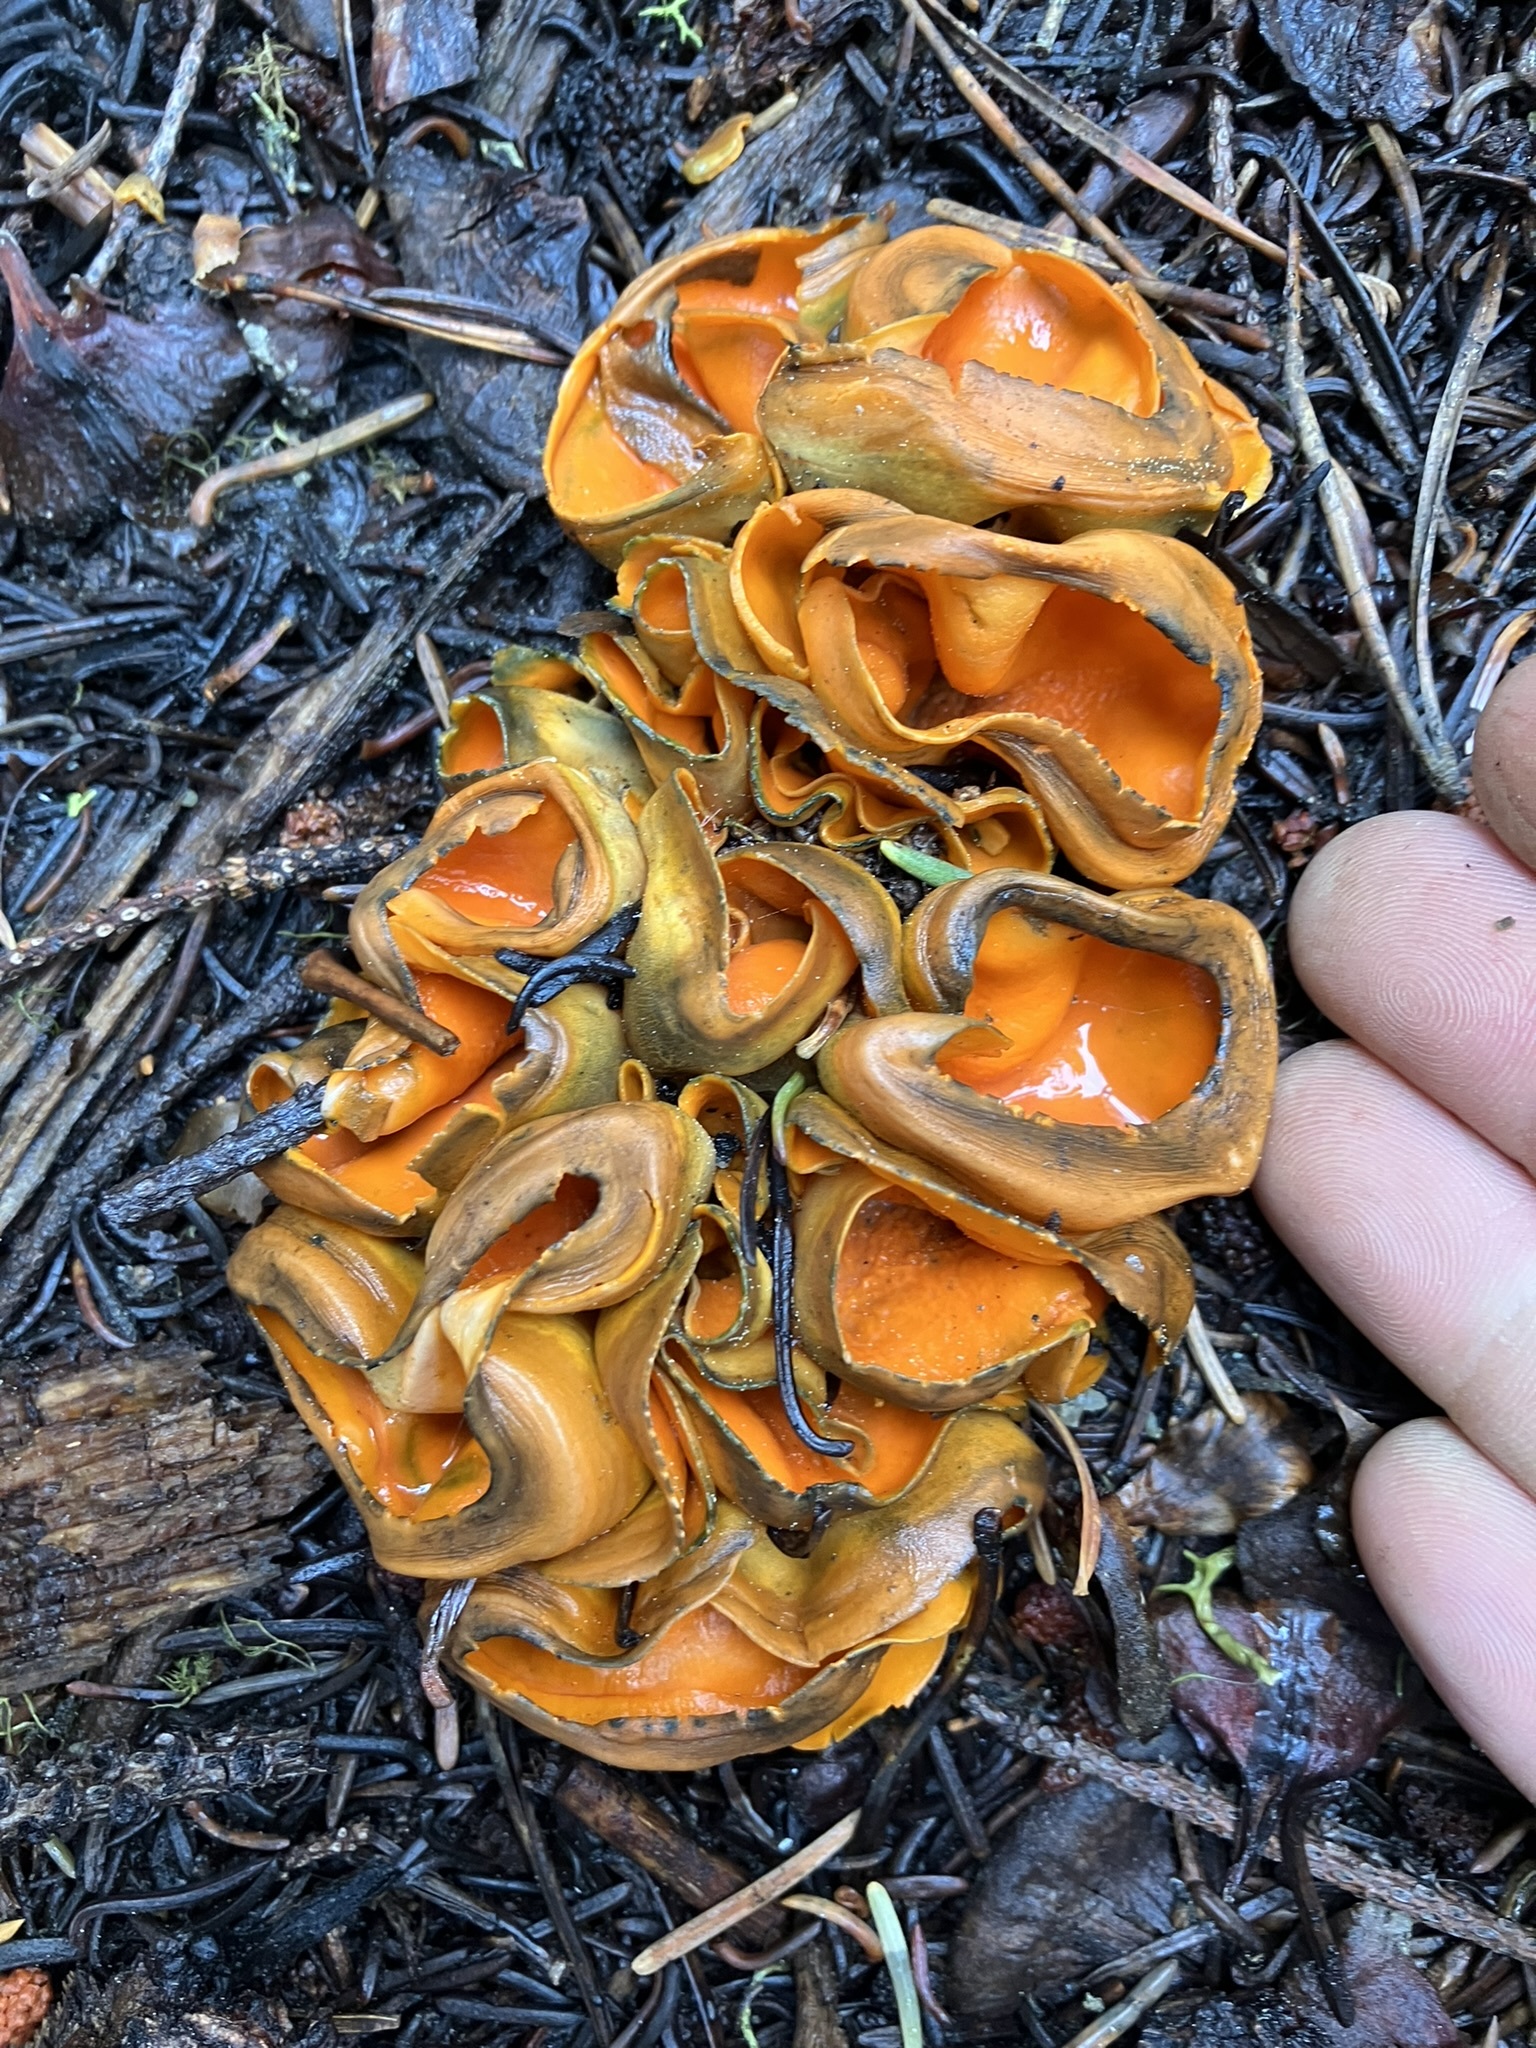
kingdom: Fungi
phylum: Ascomycota
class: Pezizomycetes
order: Pezizales
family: Caloscyphaceae
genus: Caloscypha
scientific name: Caloscypha fulgens
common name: Golden cup
